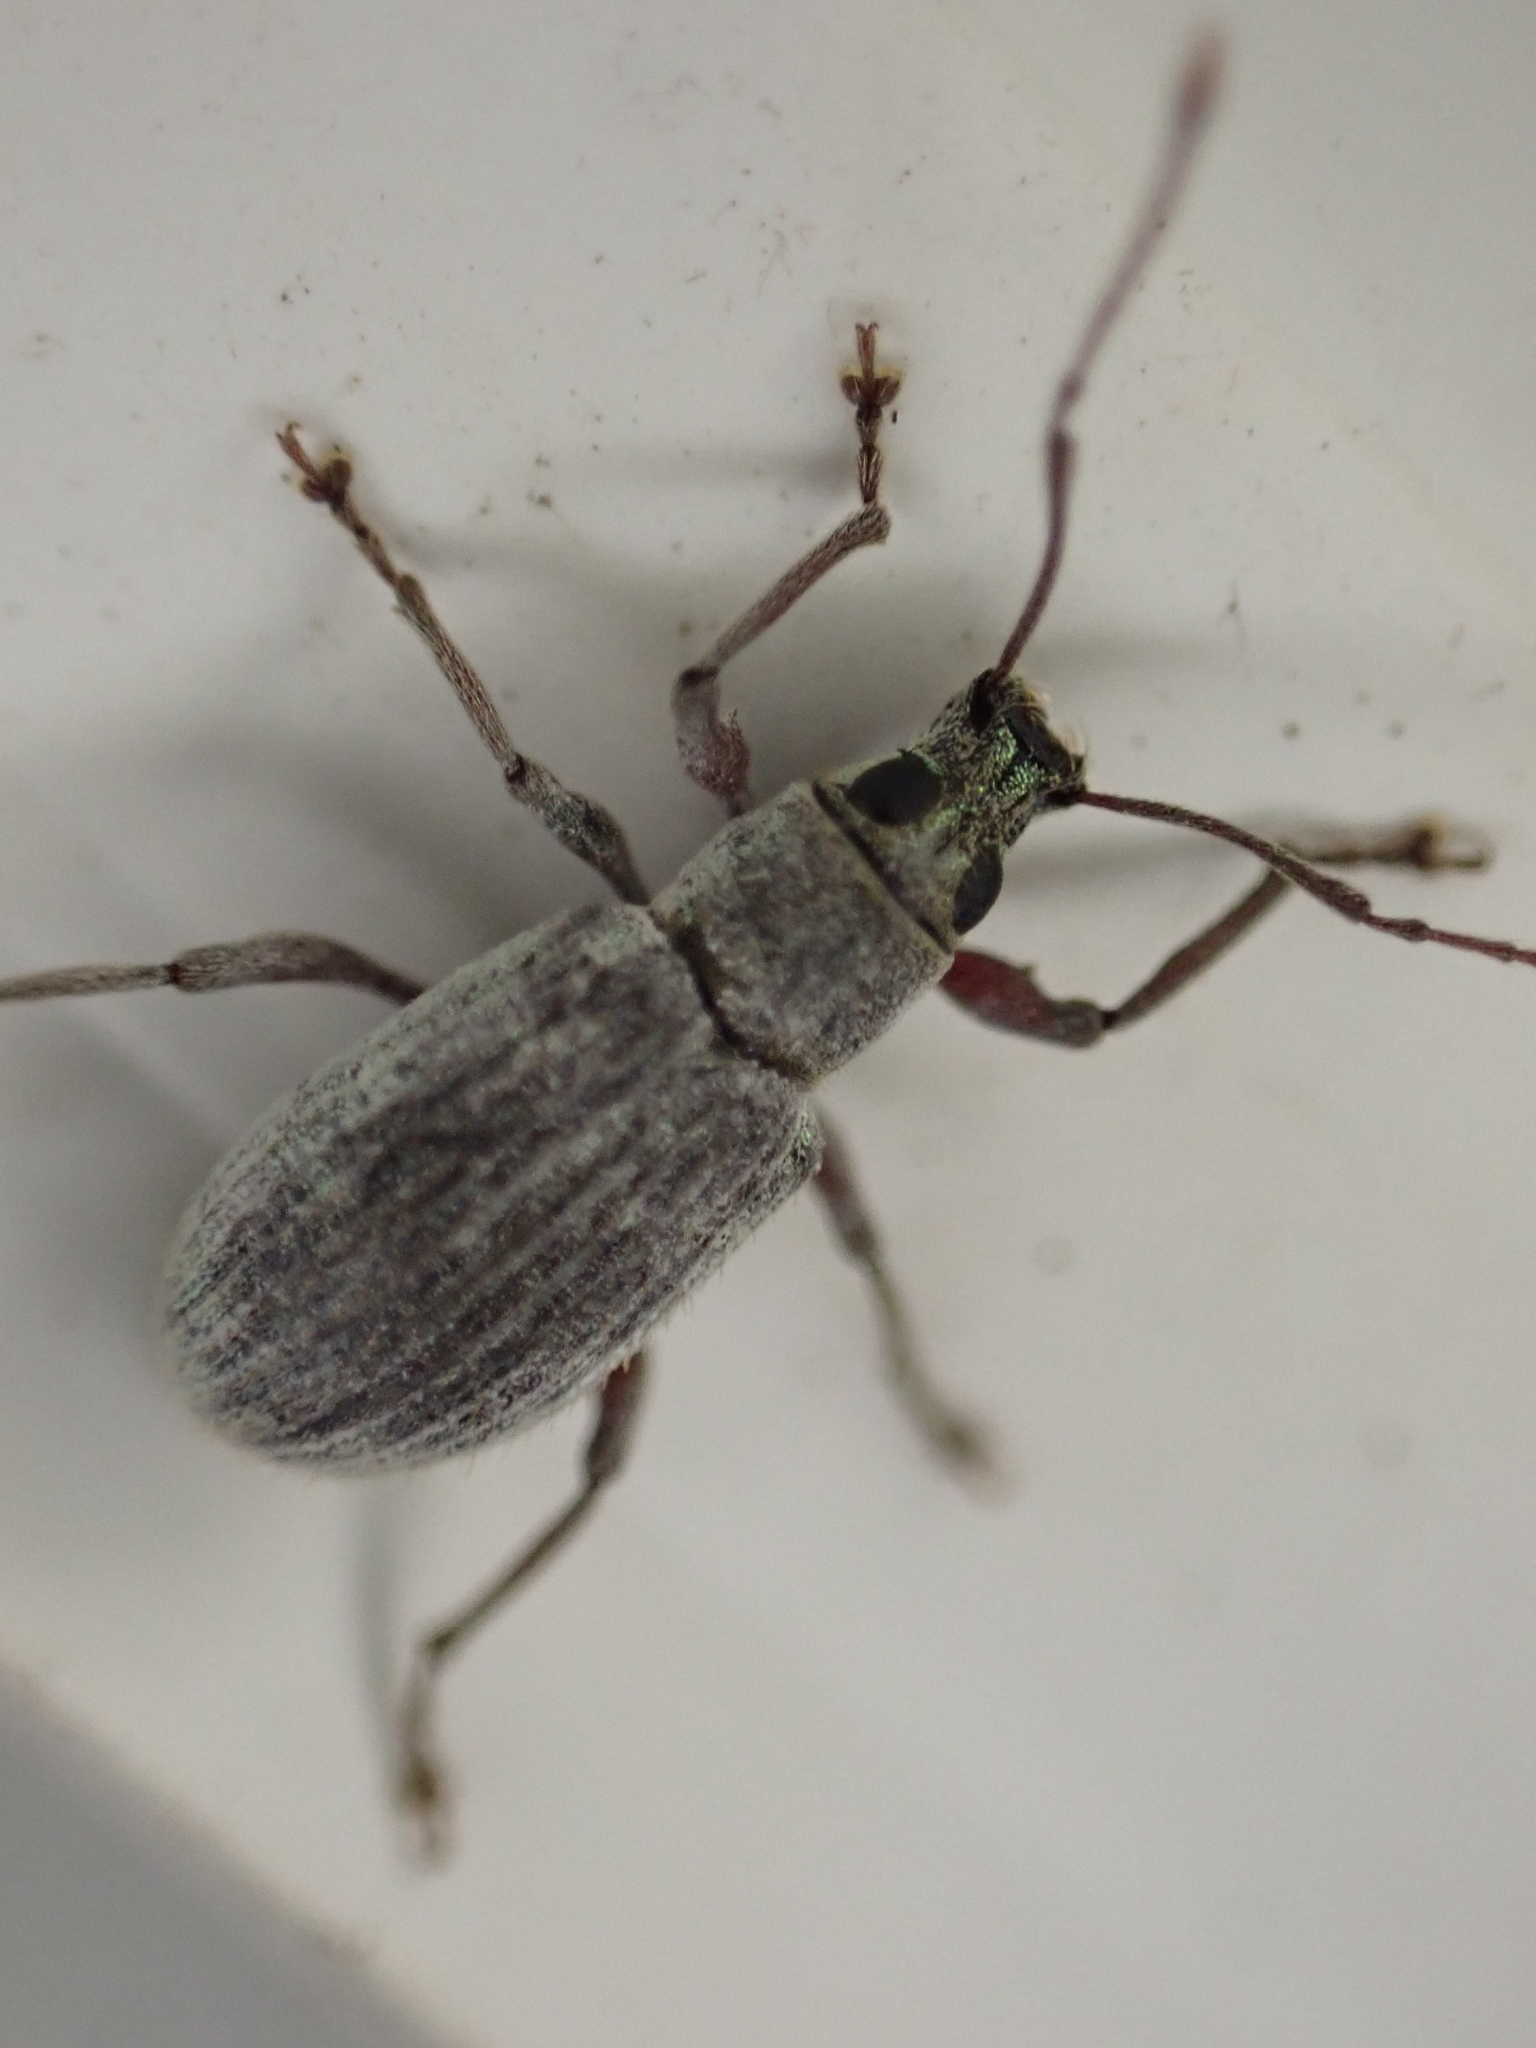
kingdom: Animalia
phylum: Arthropoda
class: Insecta
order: Coleoptera
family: Curculionidae
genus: Cyrtepistomus
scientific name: Cyrtepistomus castaneus
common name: Weevil
